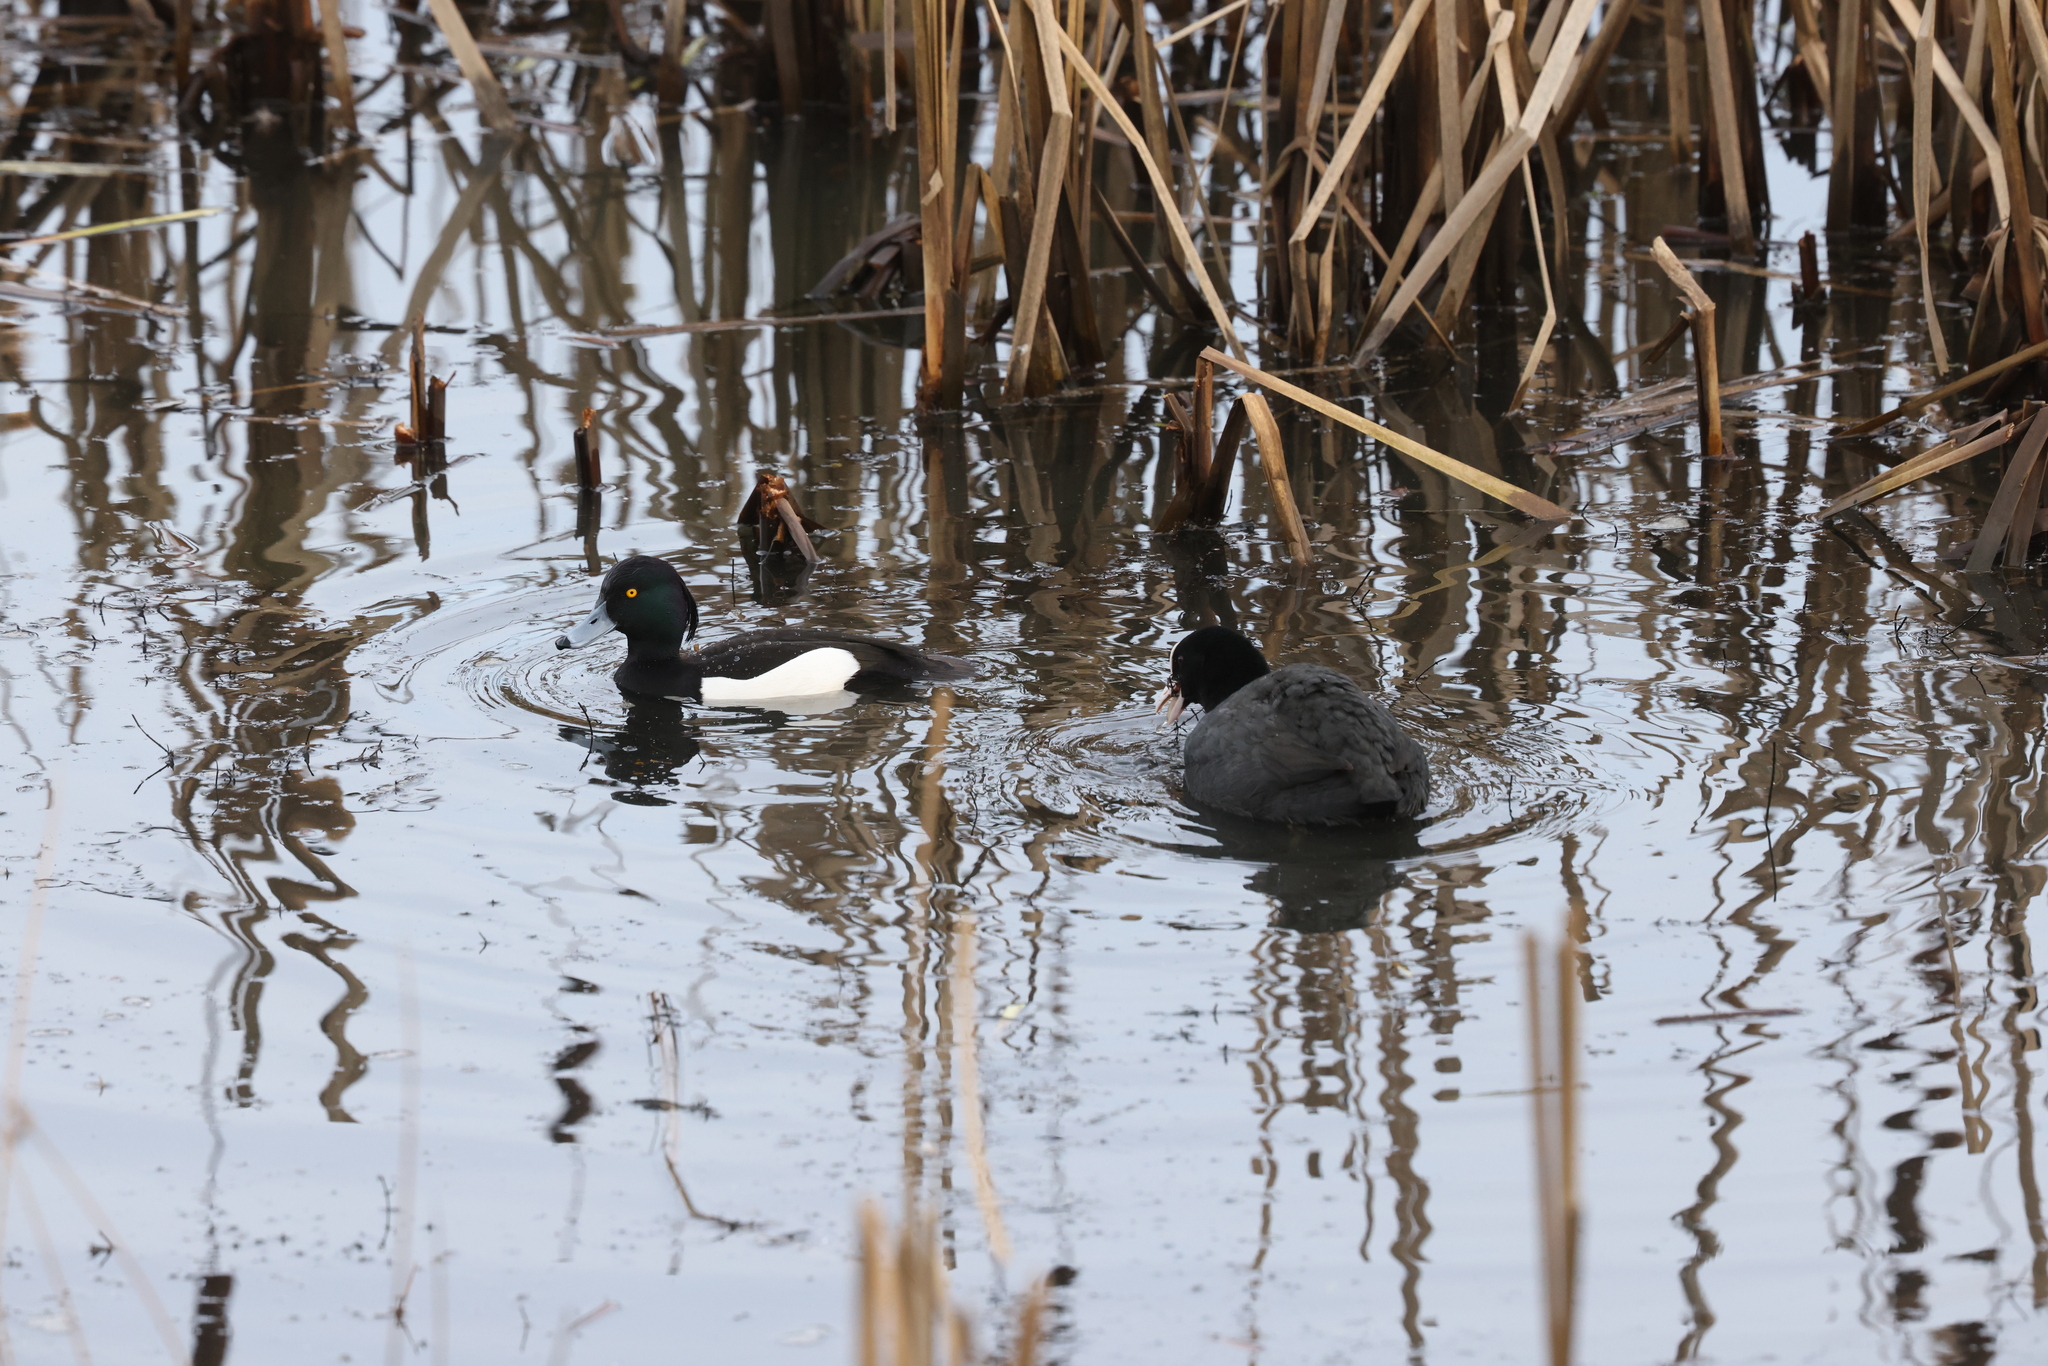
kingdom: Animalia
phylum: Chordata
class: Aves
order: Anseriformes
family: Anatidae
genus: Aythya
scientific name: Aythya fuligula
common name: Tufted duck
